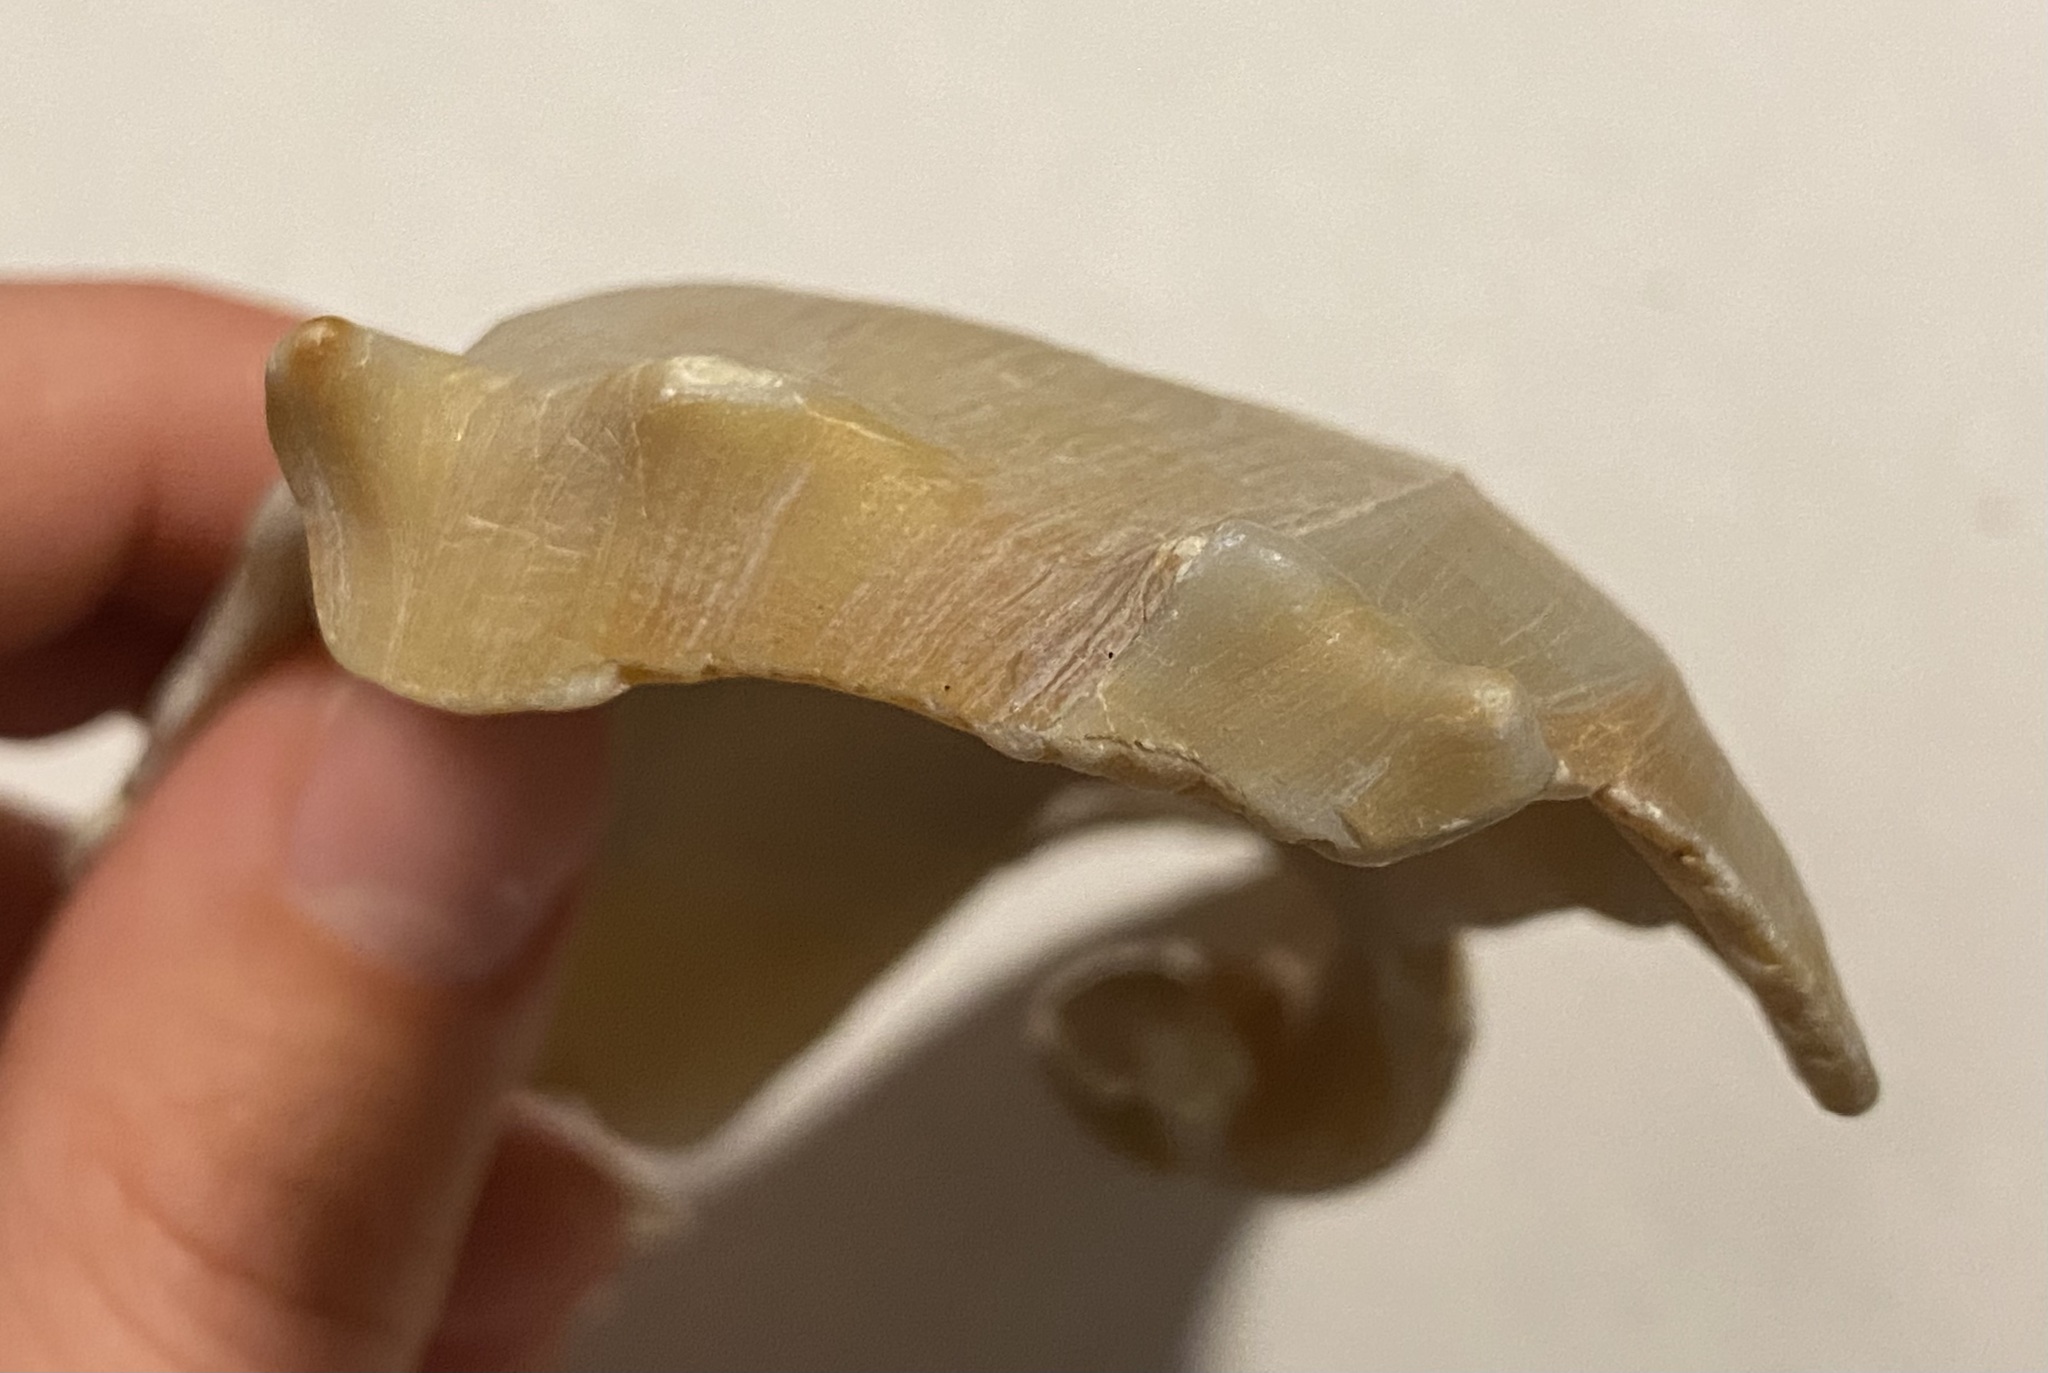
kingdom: Animalia
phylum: Mollusca
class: Gastropoda
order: Neogastropoda
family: Busyconidae
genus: Busycon
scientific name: Busycon carica
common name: Knobbed whelk
